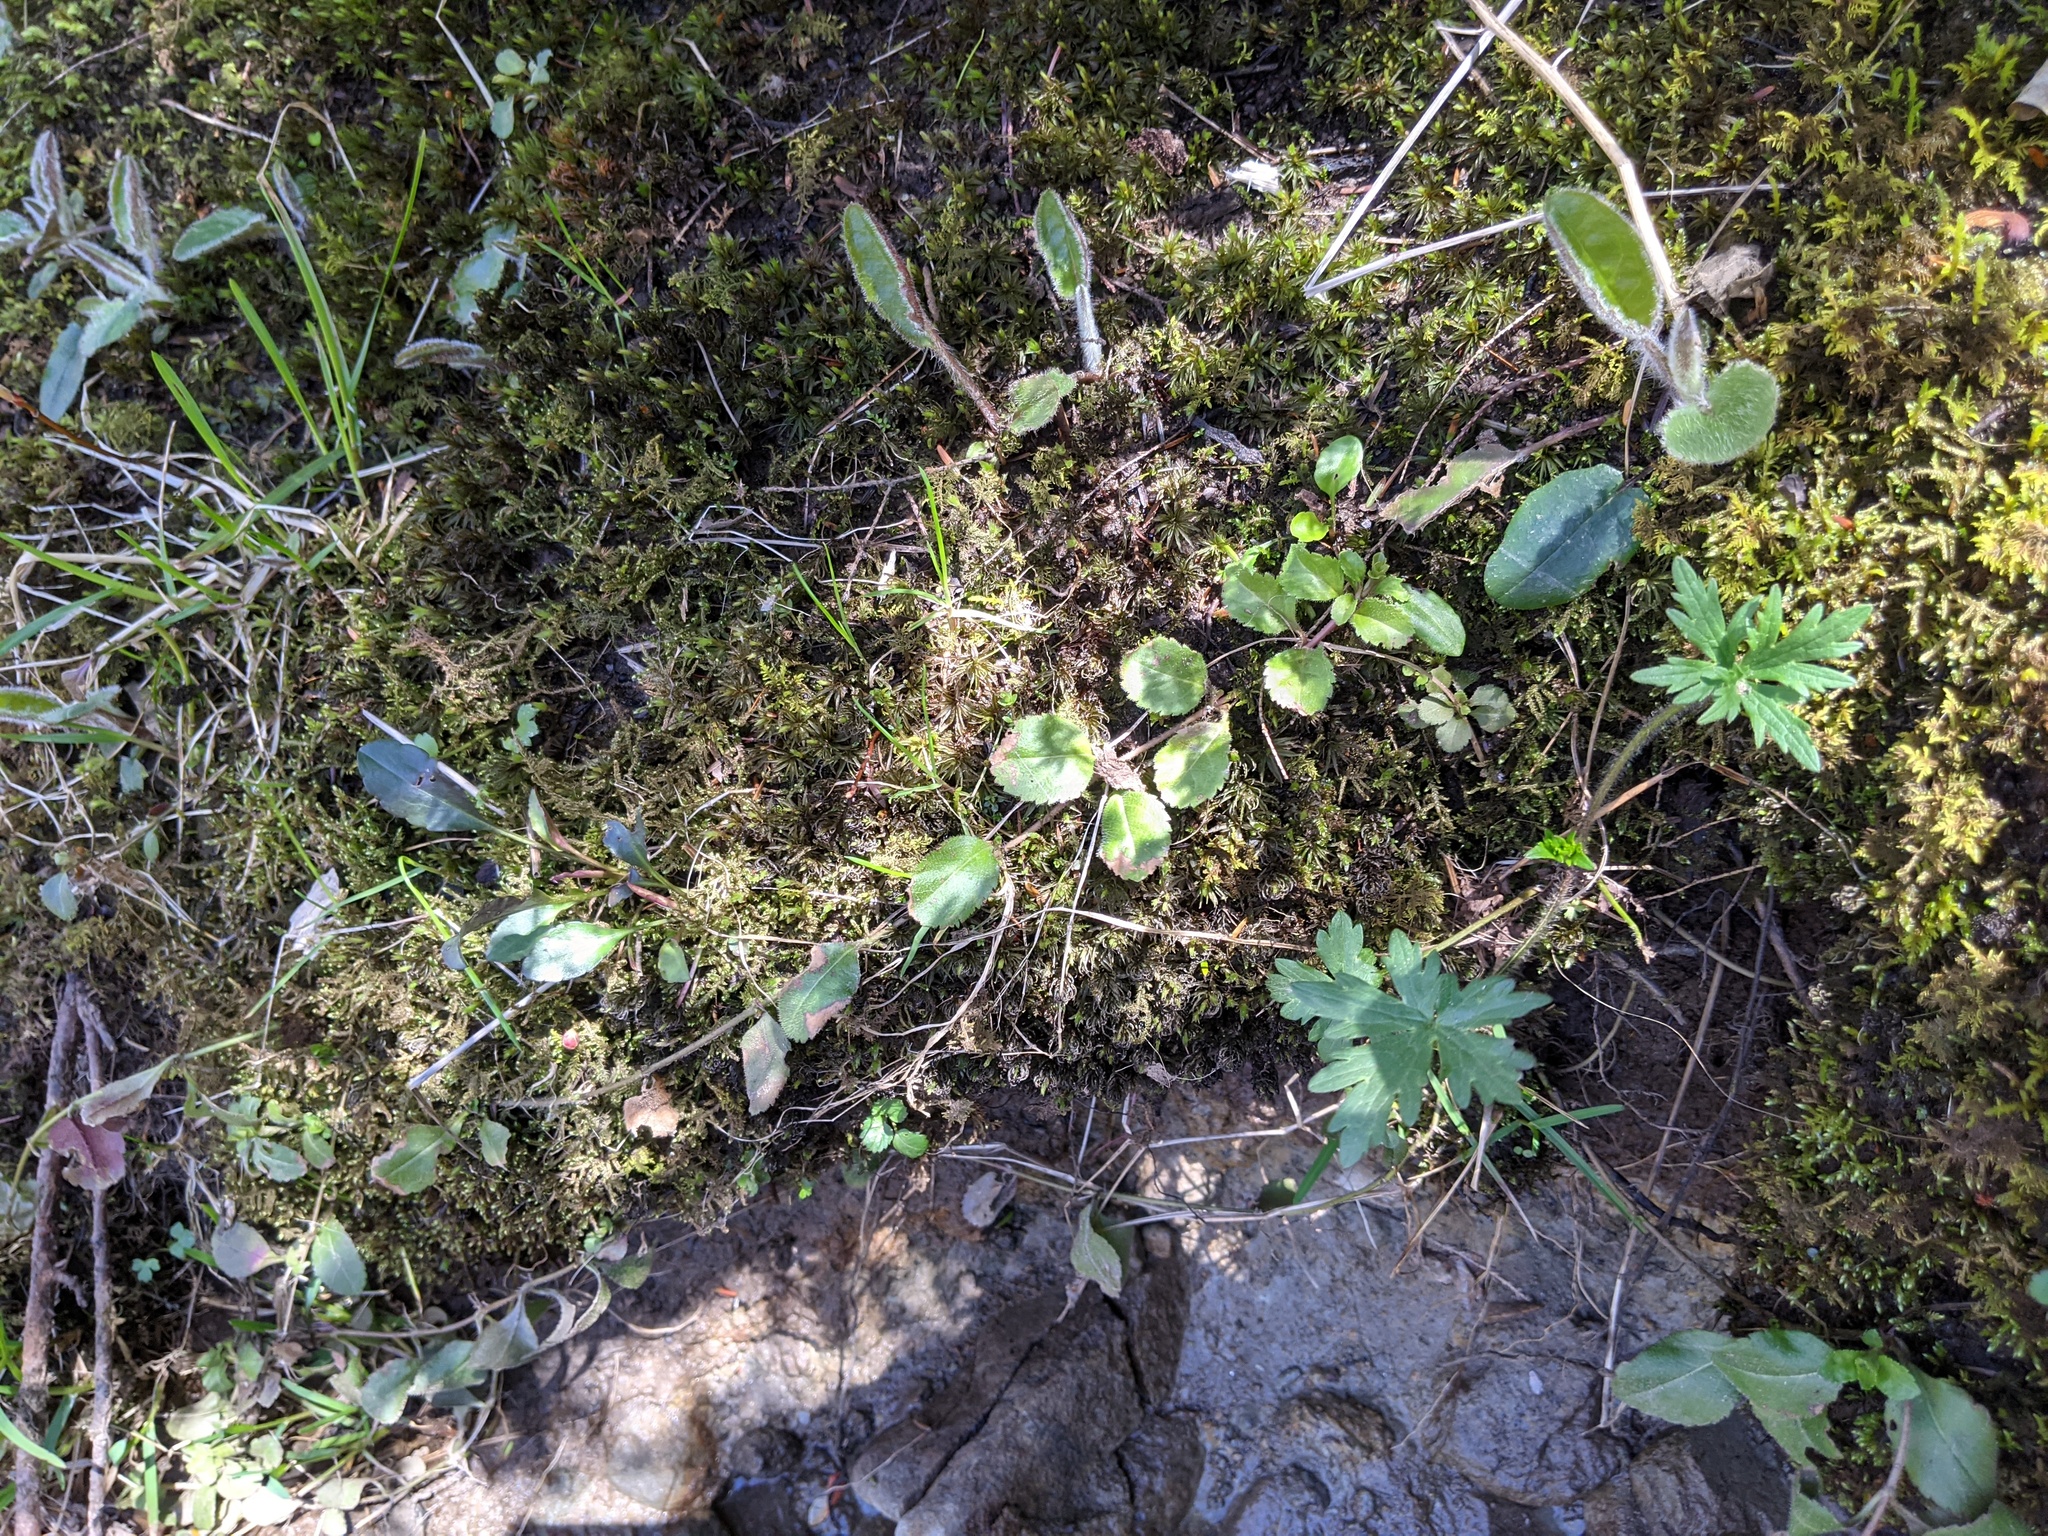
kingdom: Plantae
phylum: Tracheophyta
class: Magnoliopsida
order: Lamiales
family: Plantaginaceae
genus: Veronica
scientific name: Veronica officinalis
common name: Common speedwell
